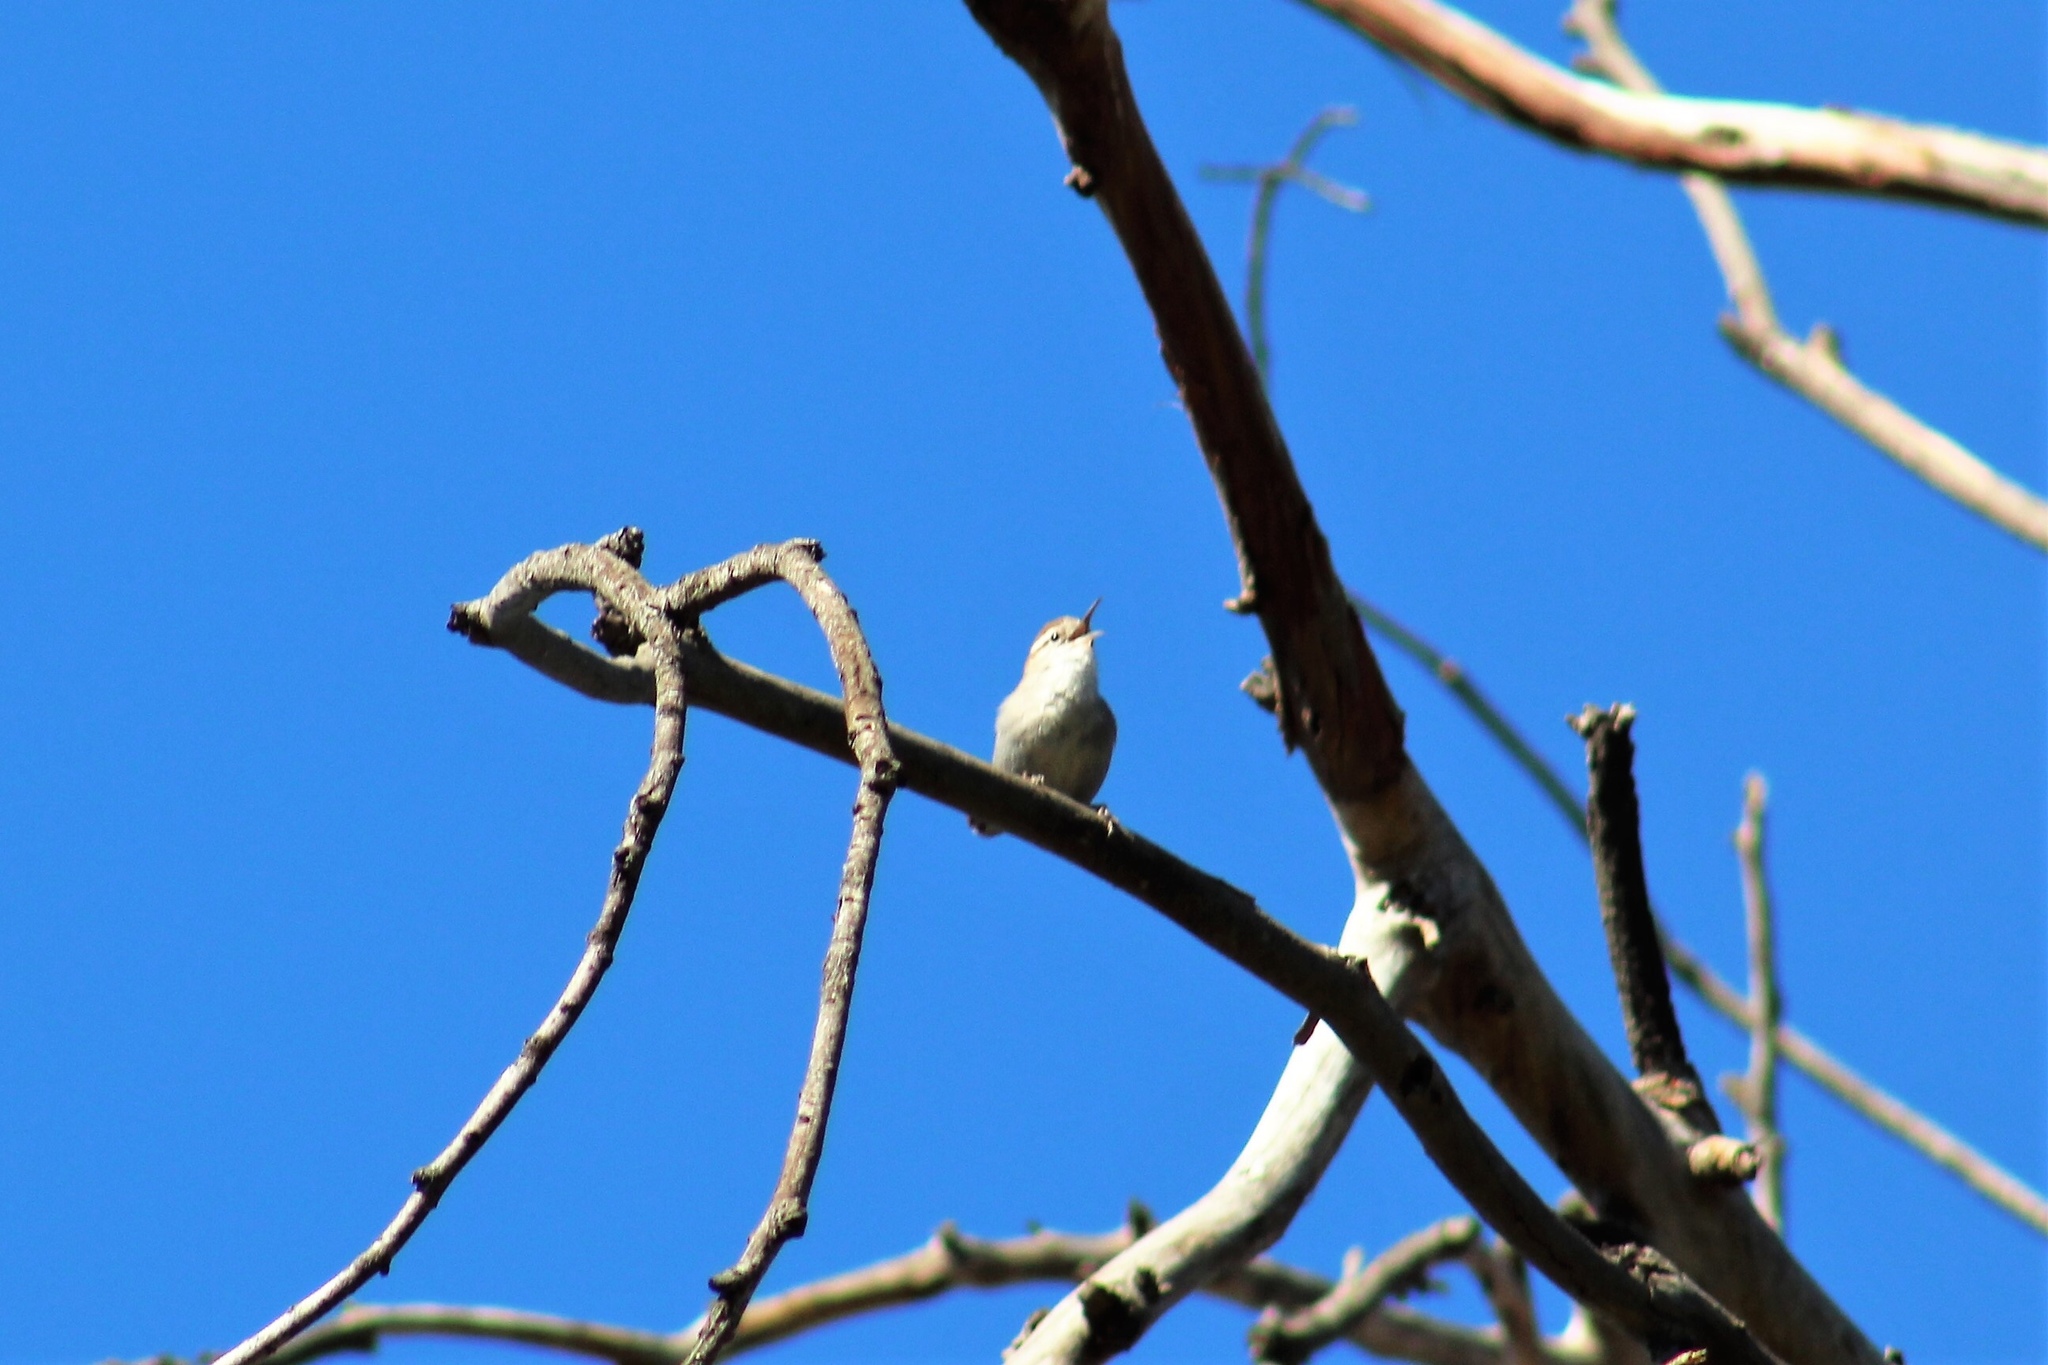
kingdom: Animalia
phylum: Chordata
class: Aves
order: Passeriformes
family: Troglodytidae
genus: Thryomanes
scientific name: Thryomanes bewickii
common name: Bewick's wren
